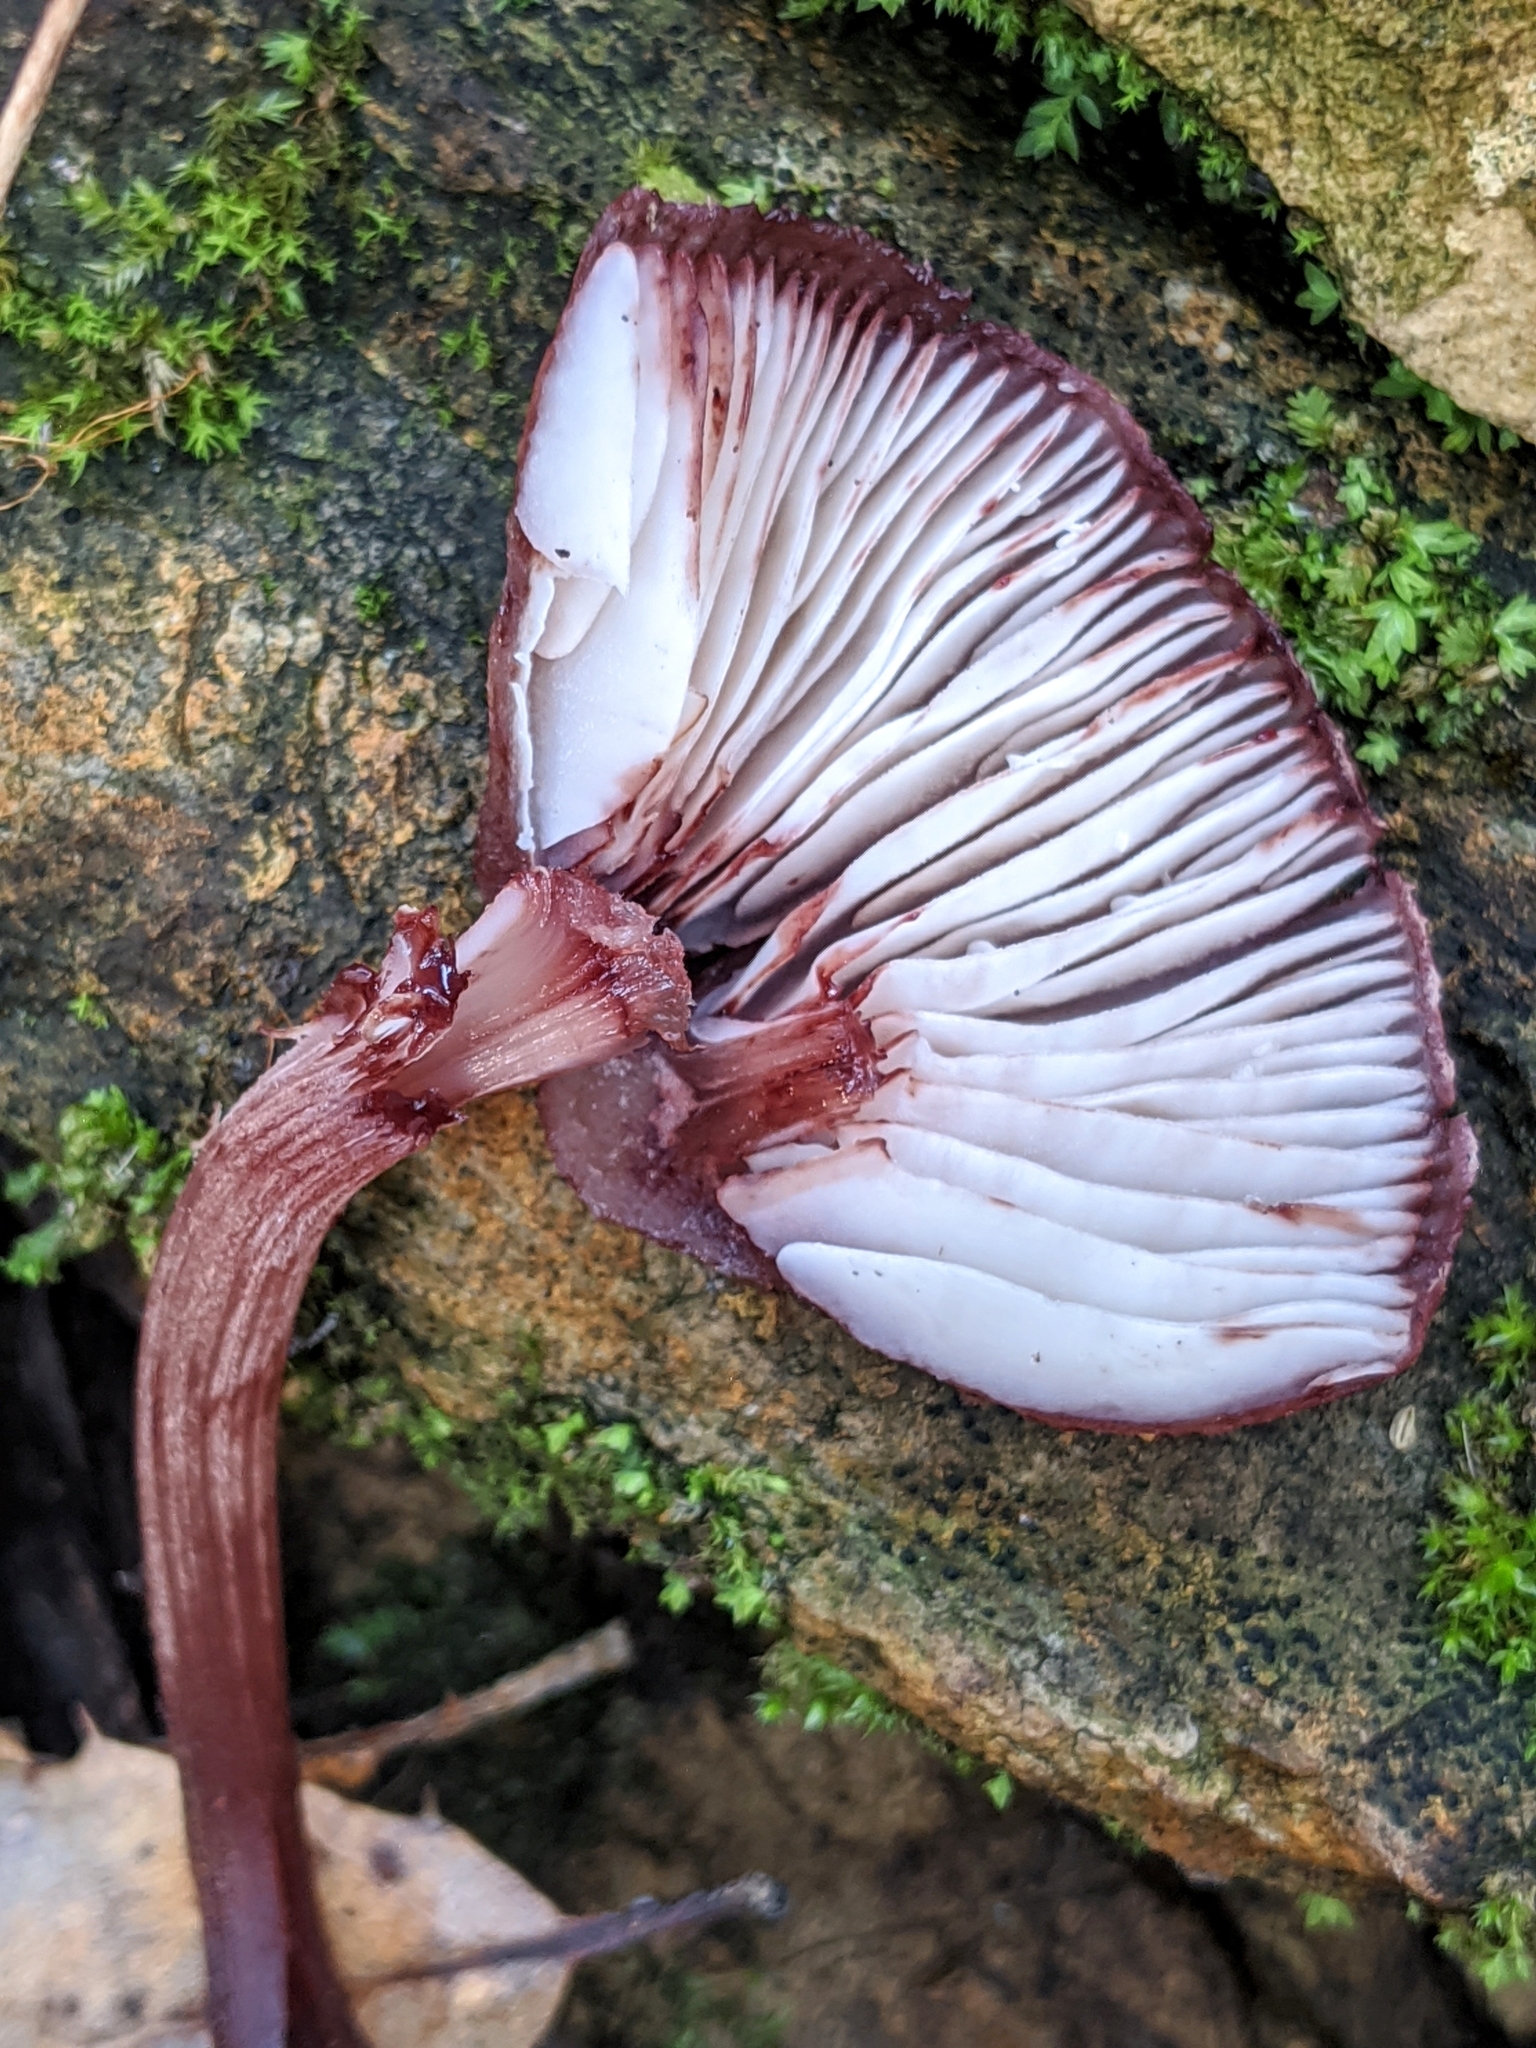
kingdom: Fungi
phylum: Basidiomycota
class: Agaricomycetes
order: Agaricales
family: Mycenaceae
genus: Mycena
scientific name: Mycena haematopus
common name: Burgundydrop bonnet
